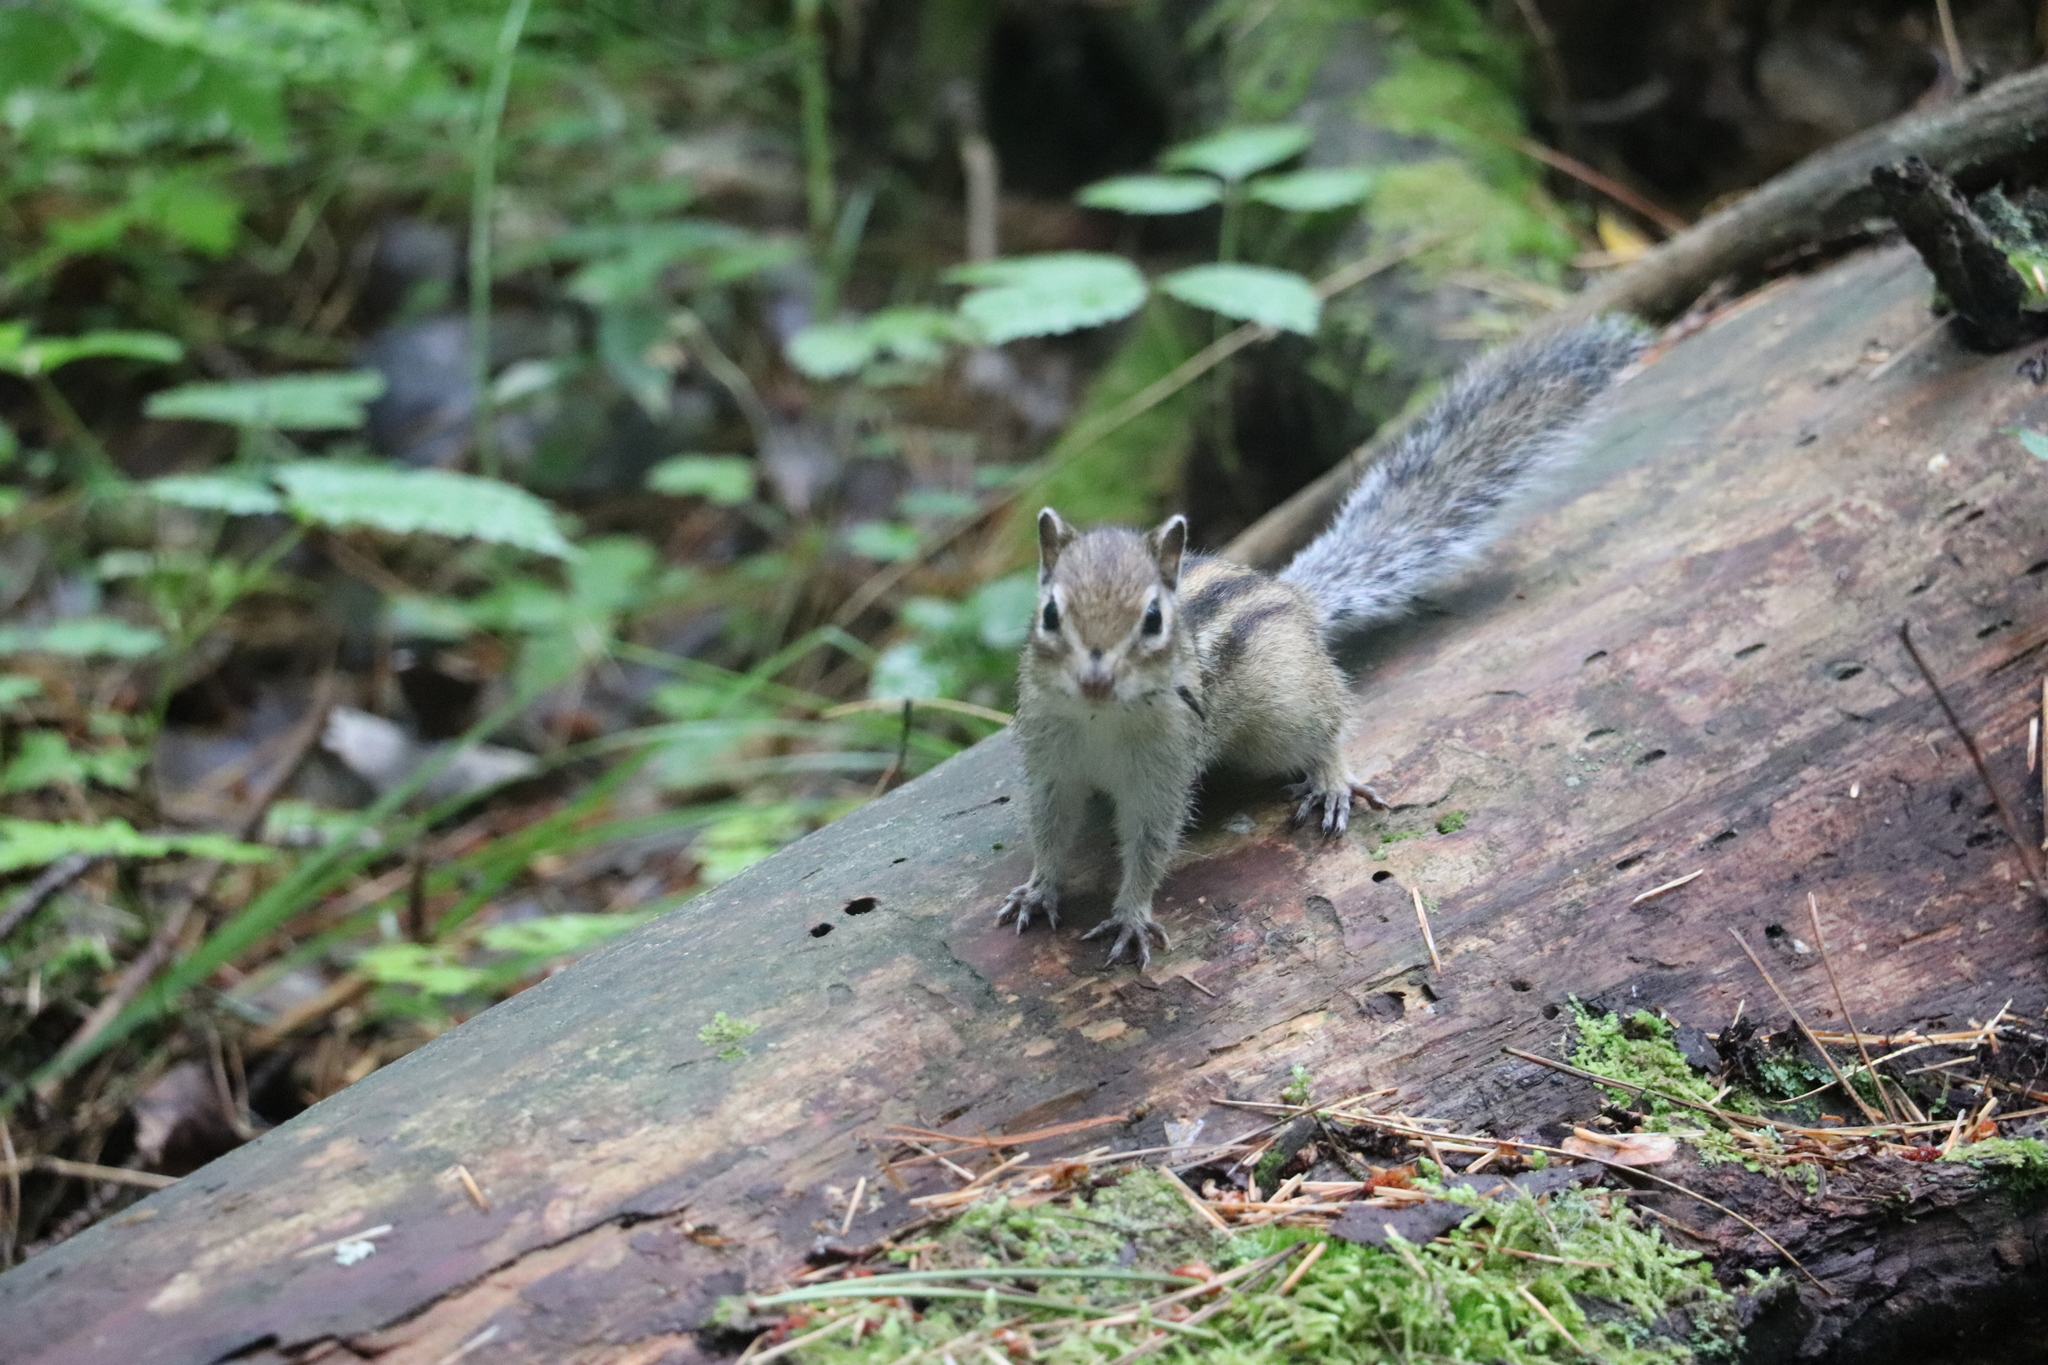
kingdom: Animalia
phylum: Chordata
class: Mammalia
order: Rodentia
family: Sciuridae
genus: Tamias
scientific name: Tamias sibiricus
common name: Siberian chipmunk
